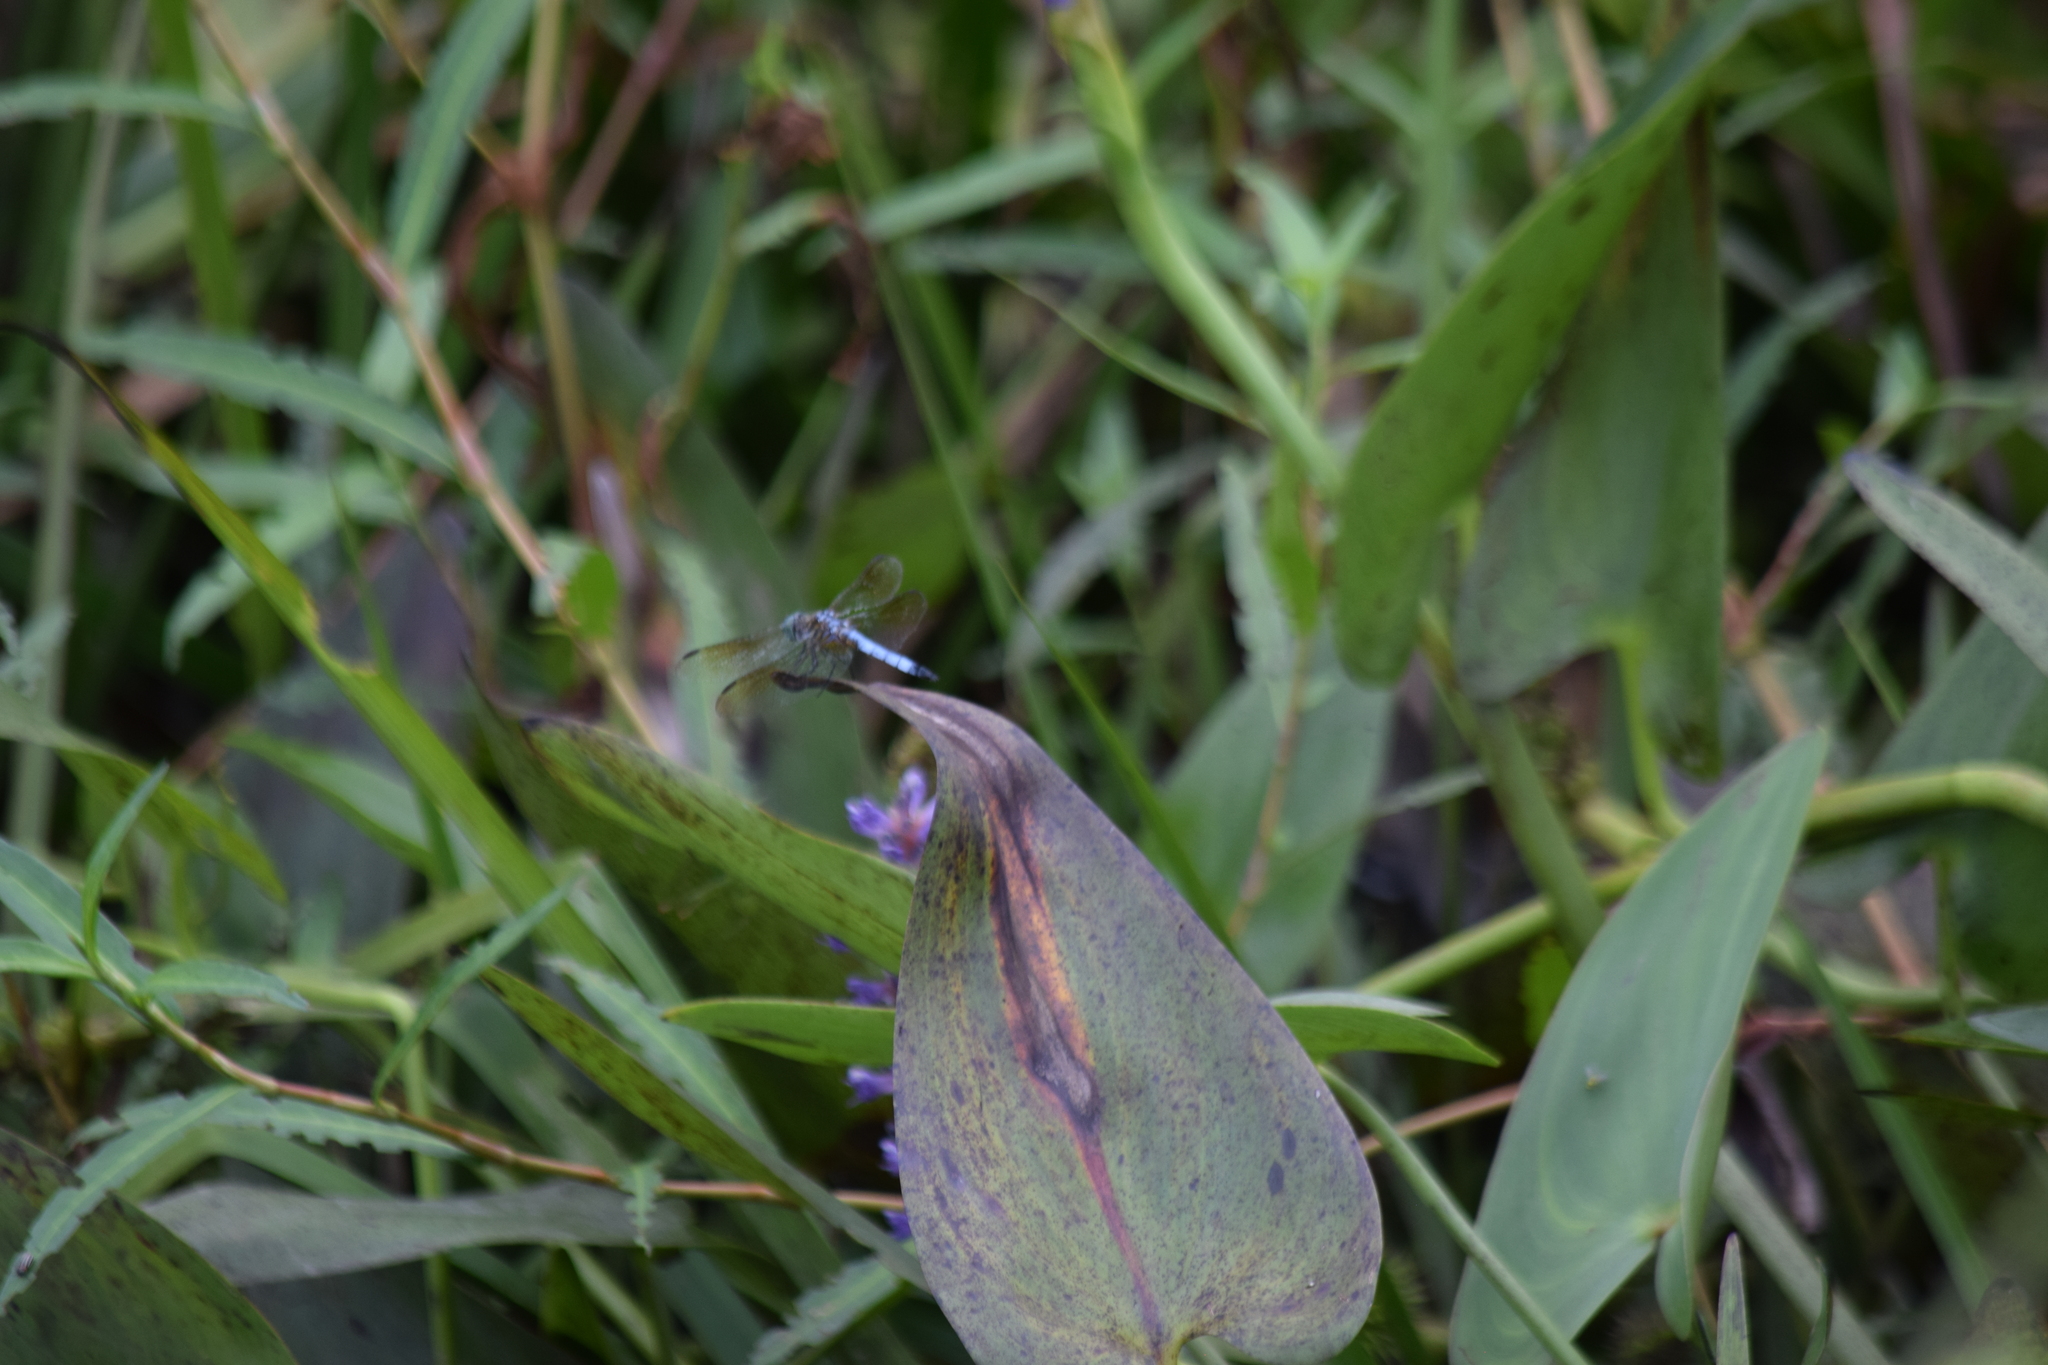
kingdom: Animalia
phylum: Arthropoda
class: Insecta
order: Odonata
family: Libellulidae
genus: Pachydiplax
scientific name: Pachydiplax longipennis
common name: Blue dasher
